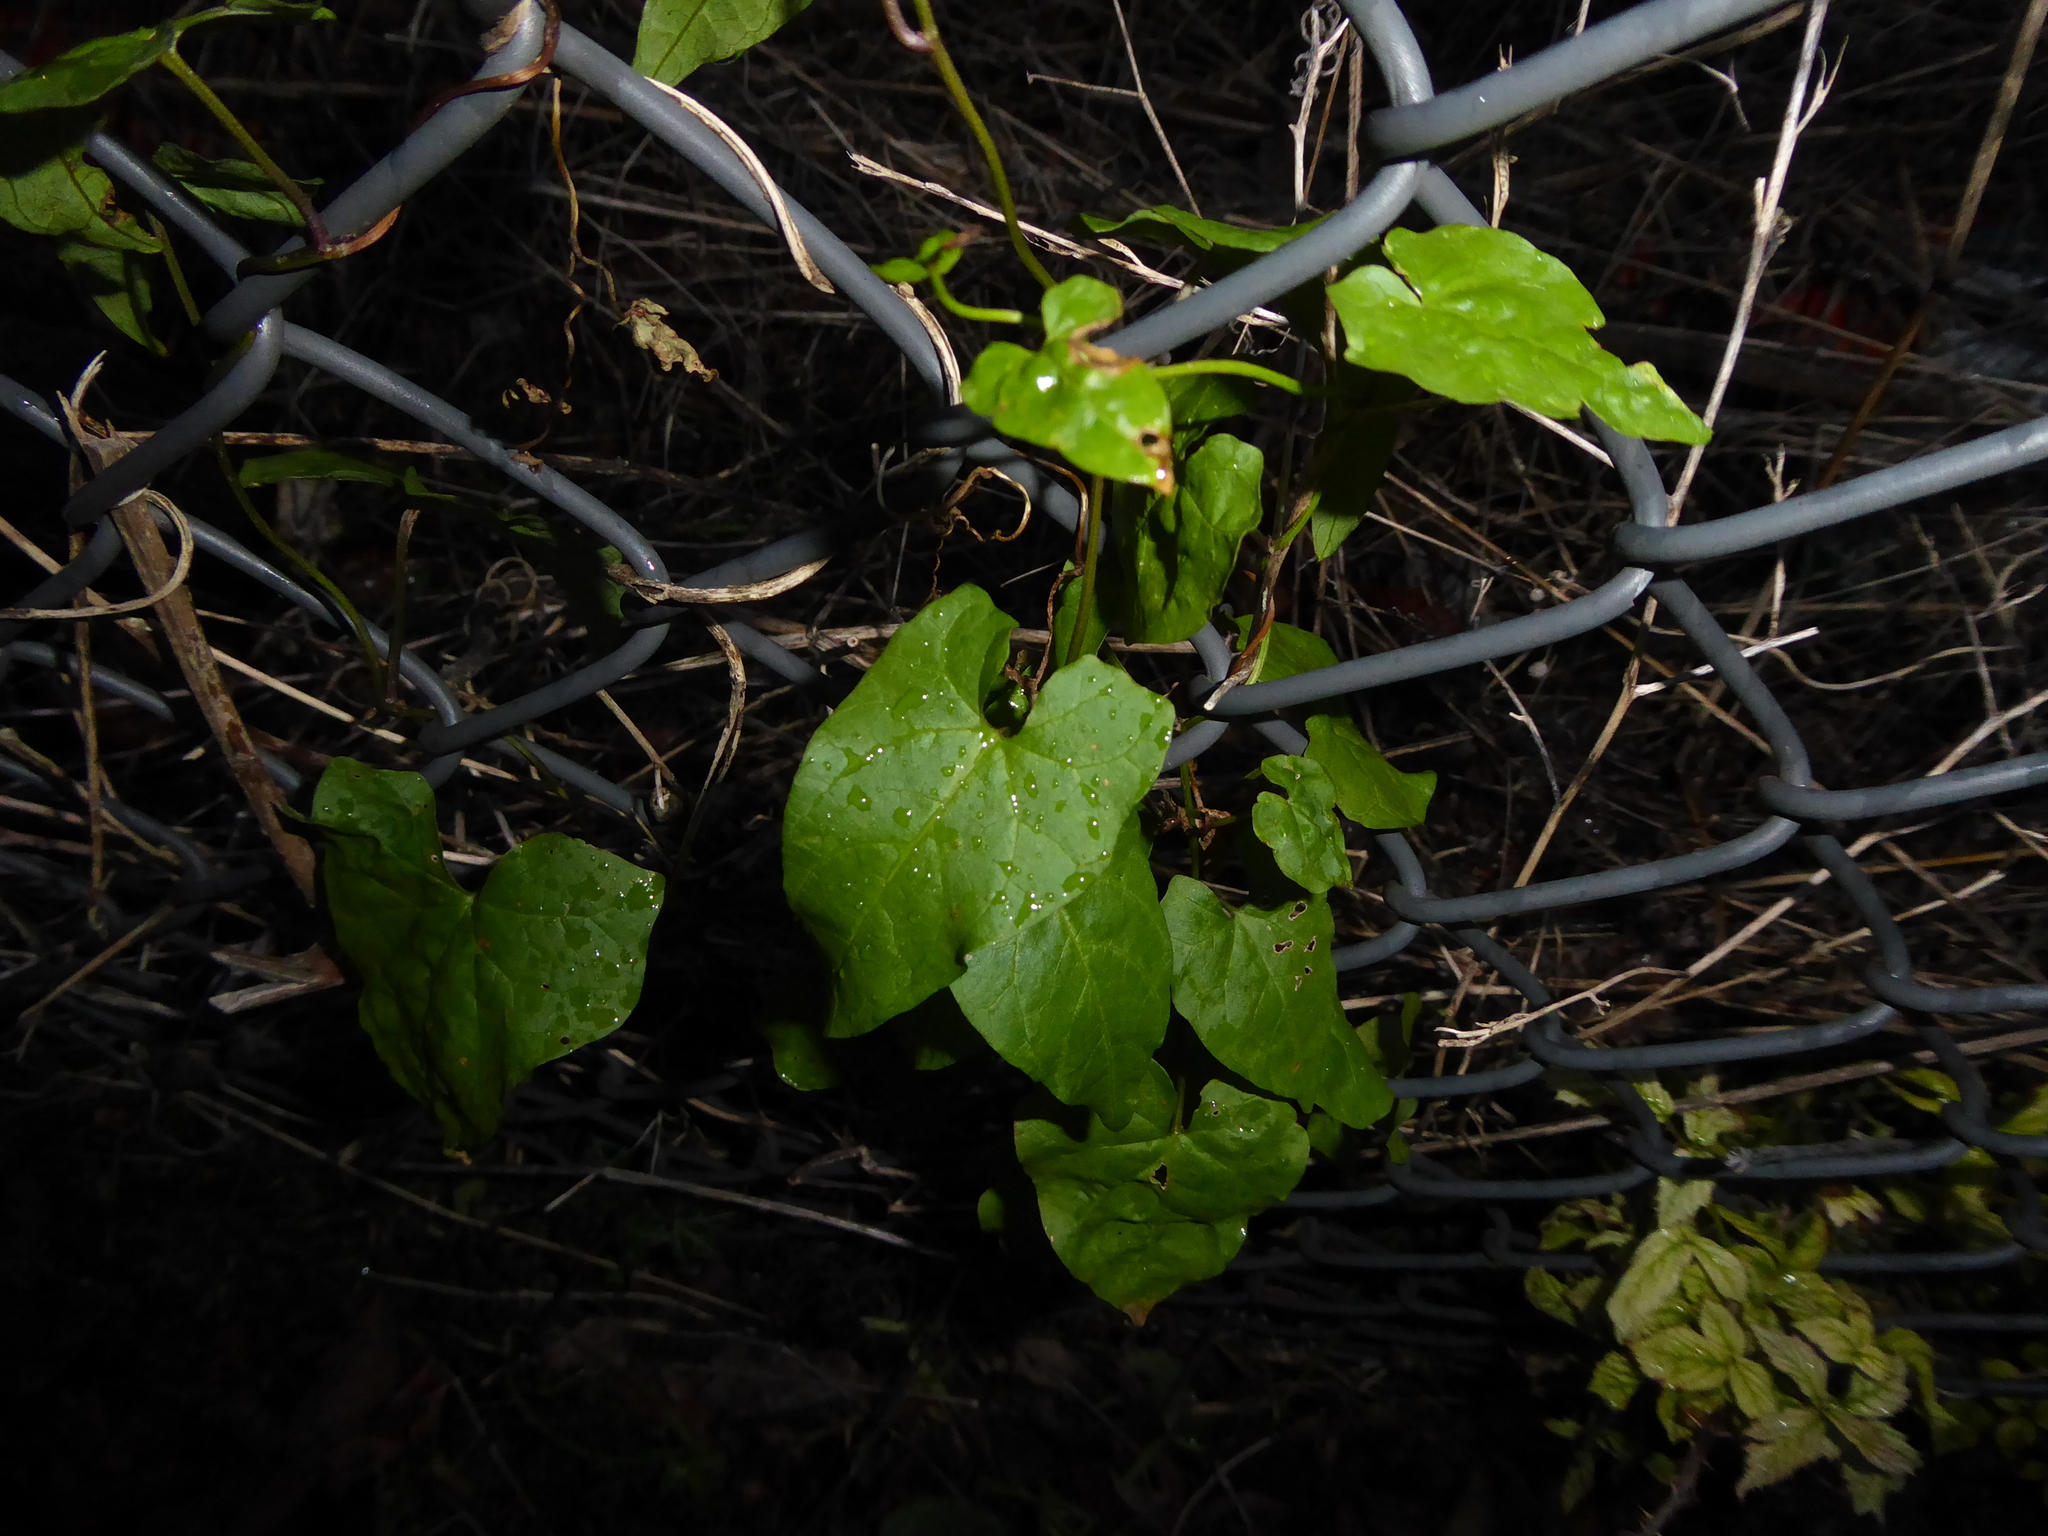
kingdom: Plantae
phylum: Tracheophyta
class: Magnoliopsida
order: Solanales
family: Convolvulaceae
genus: Calystegia
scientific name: Calystegia
